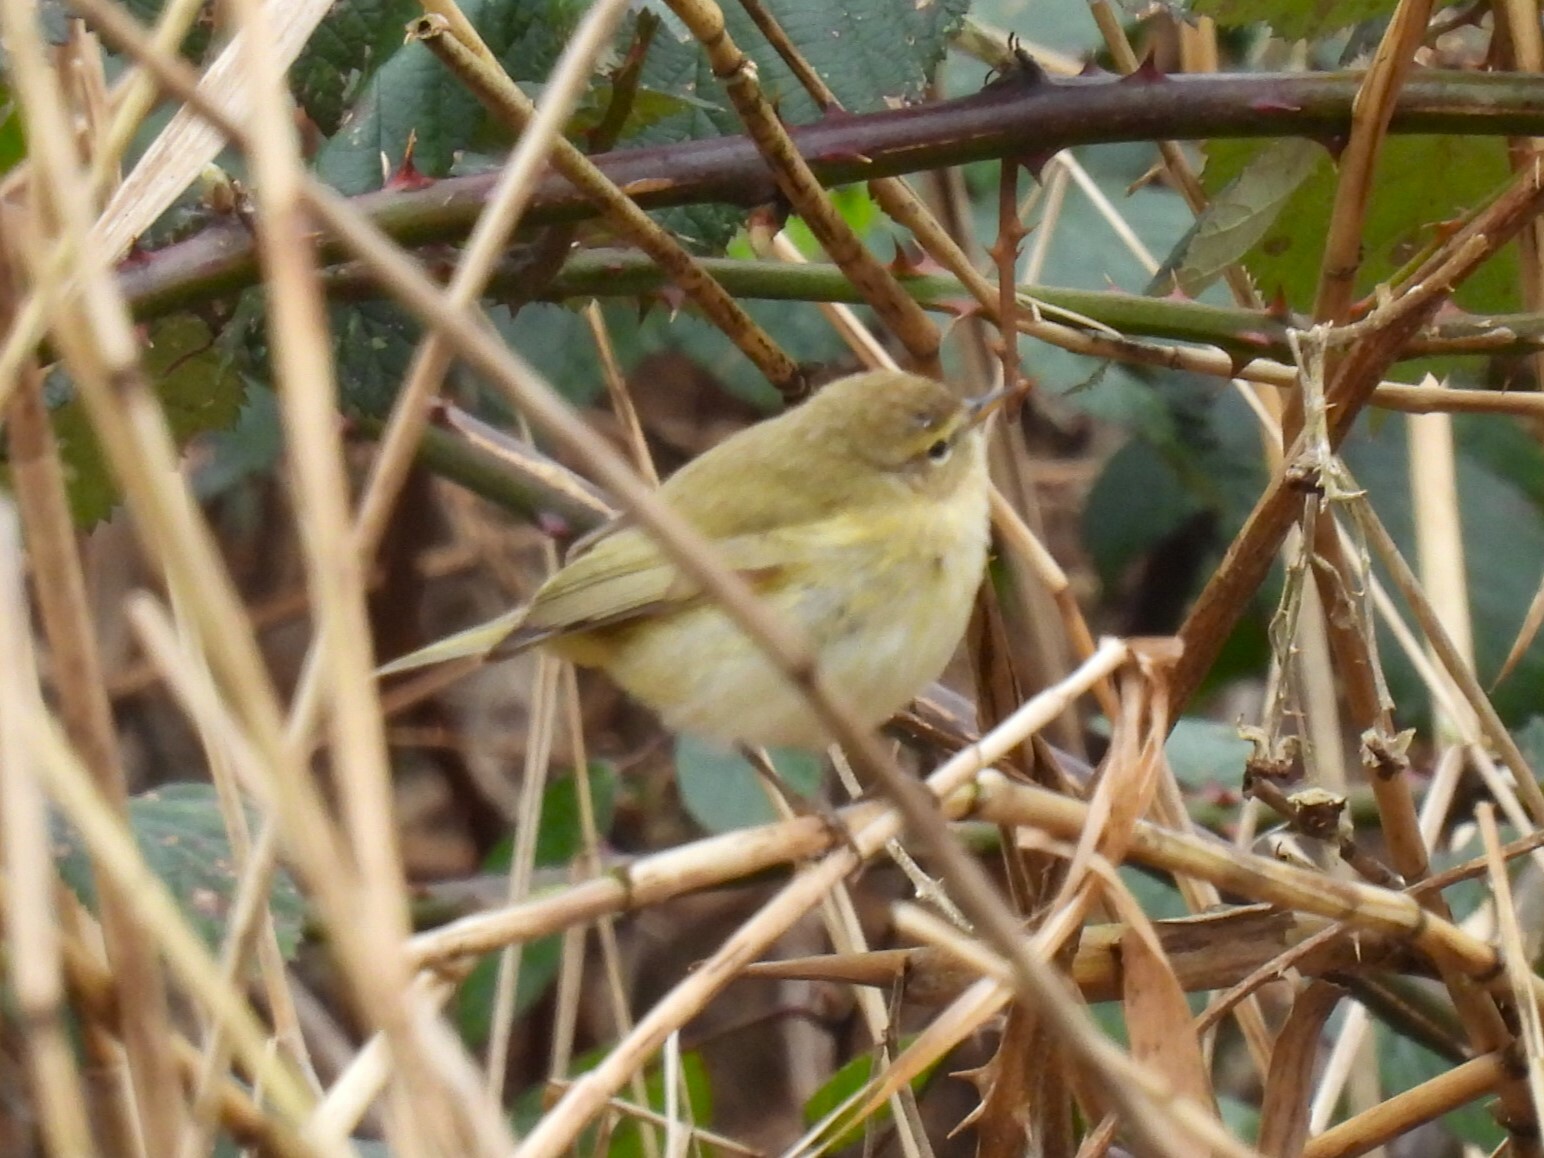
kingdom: Animalia
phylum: Chordata
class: Aves
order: Passeriformes
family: Phylloscopidae
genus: Phylloscopus
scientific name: Phylloscopus collybita
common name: Common chiffchaff
